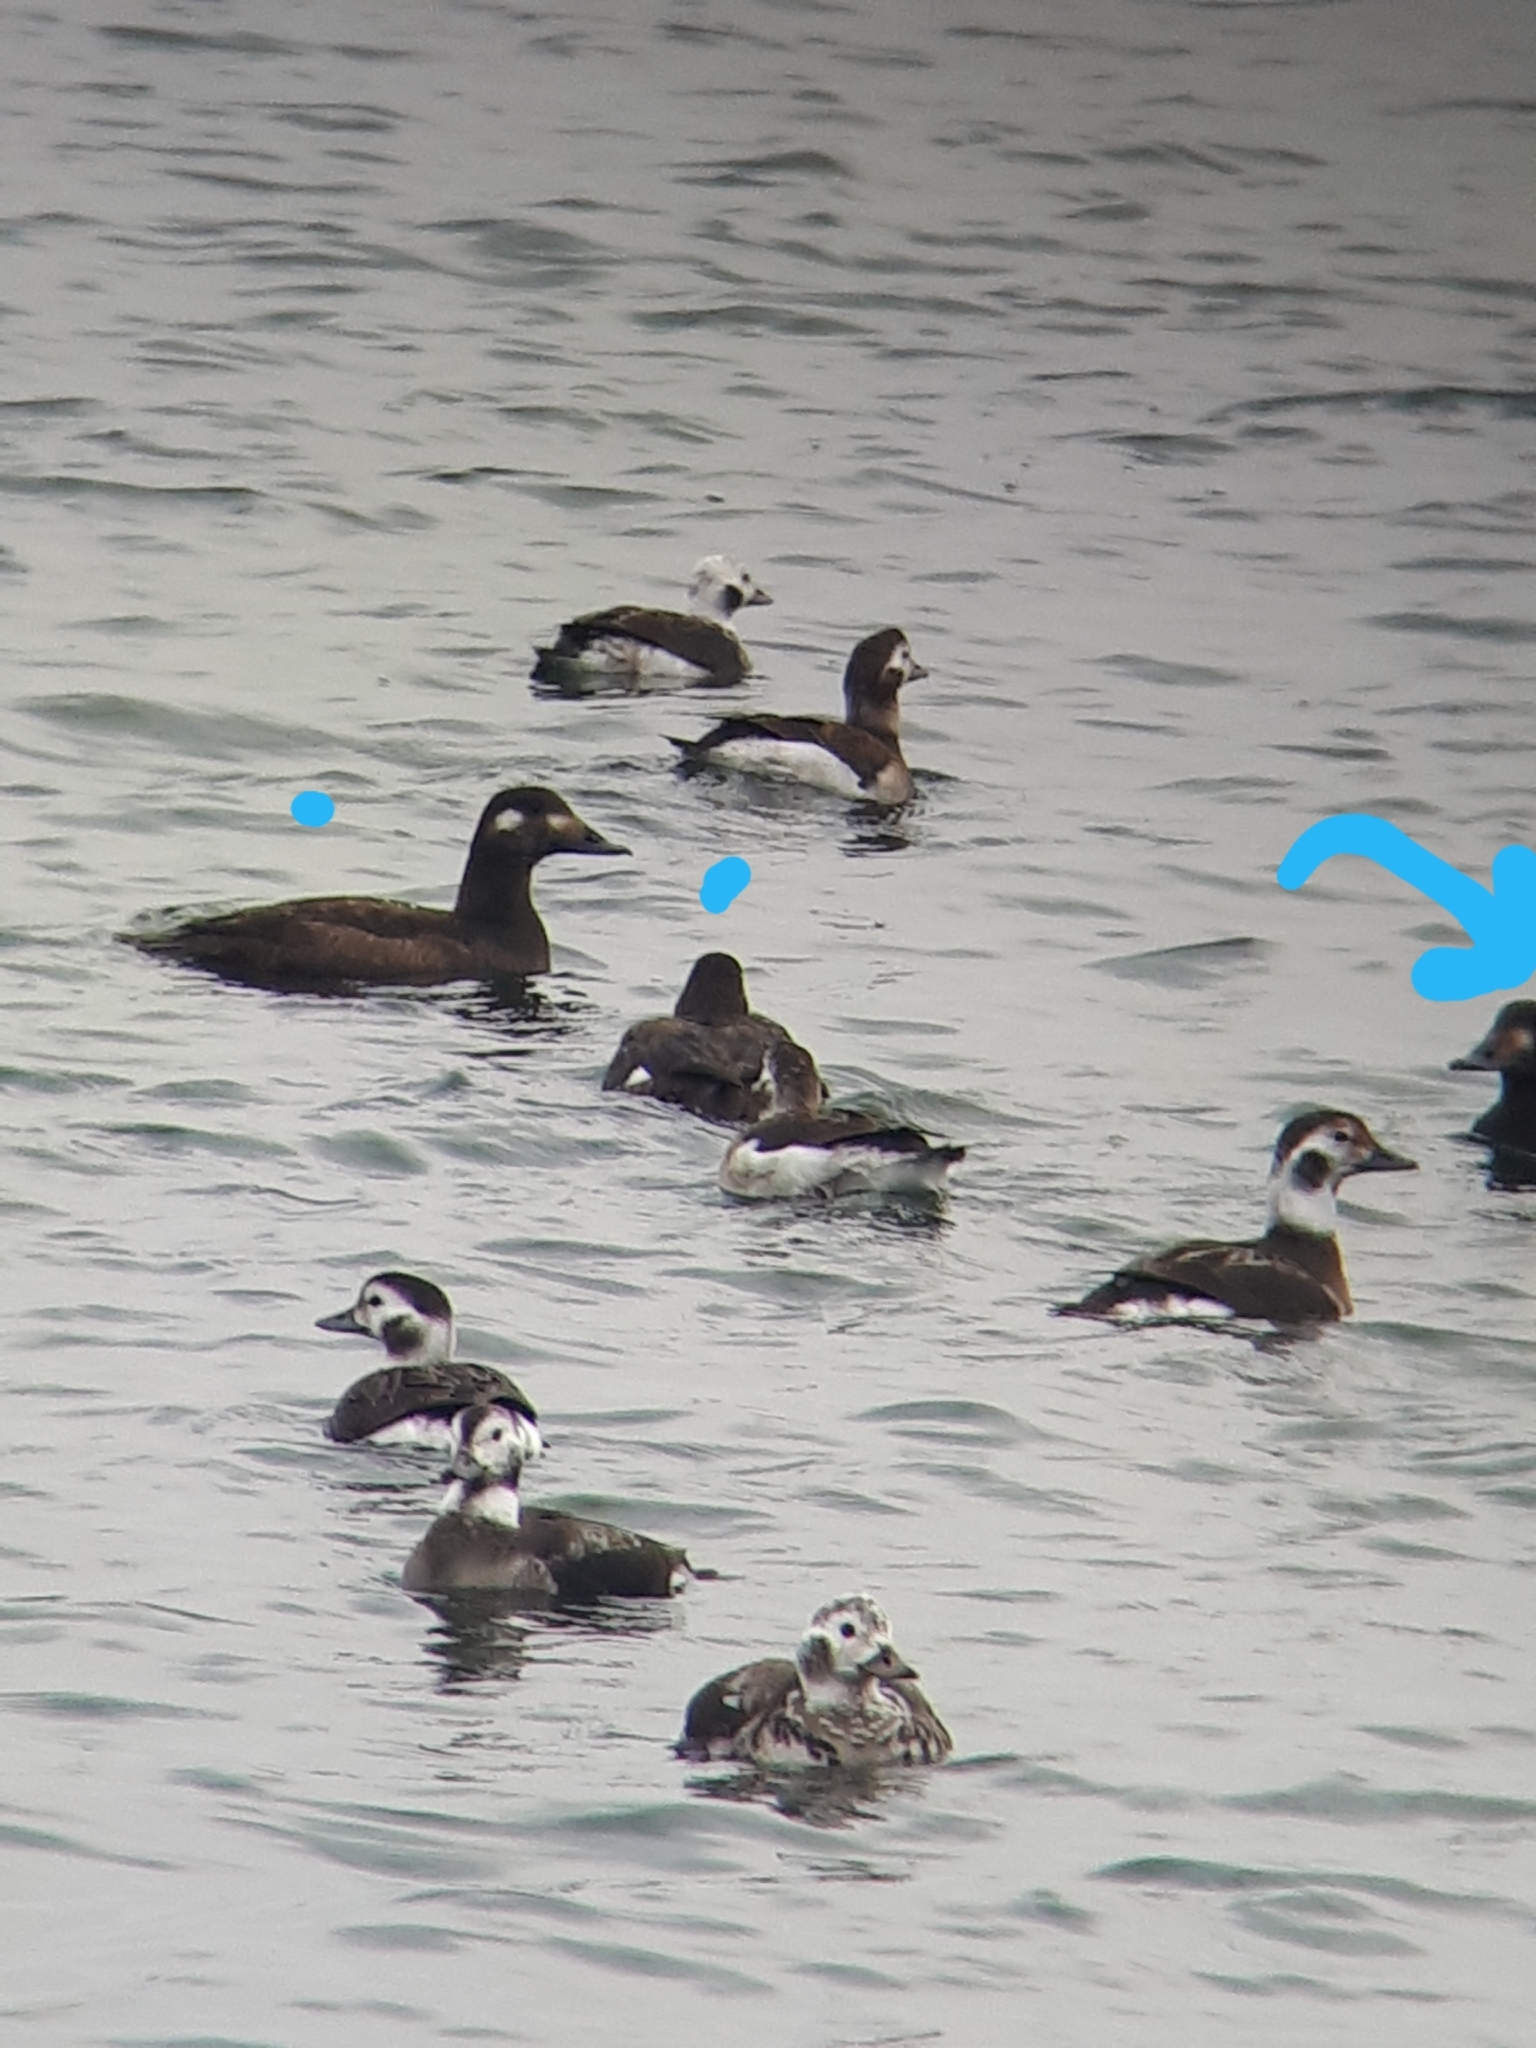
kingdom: Animalia
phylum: Chordata
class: Aves
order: Anseriformes
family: Anatidae
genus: Melanitta
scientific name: Melanitta deglandi
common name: White-winged scoter
